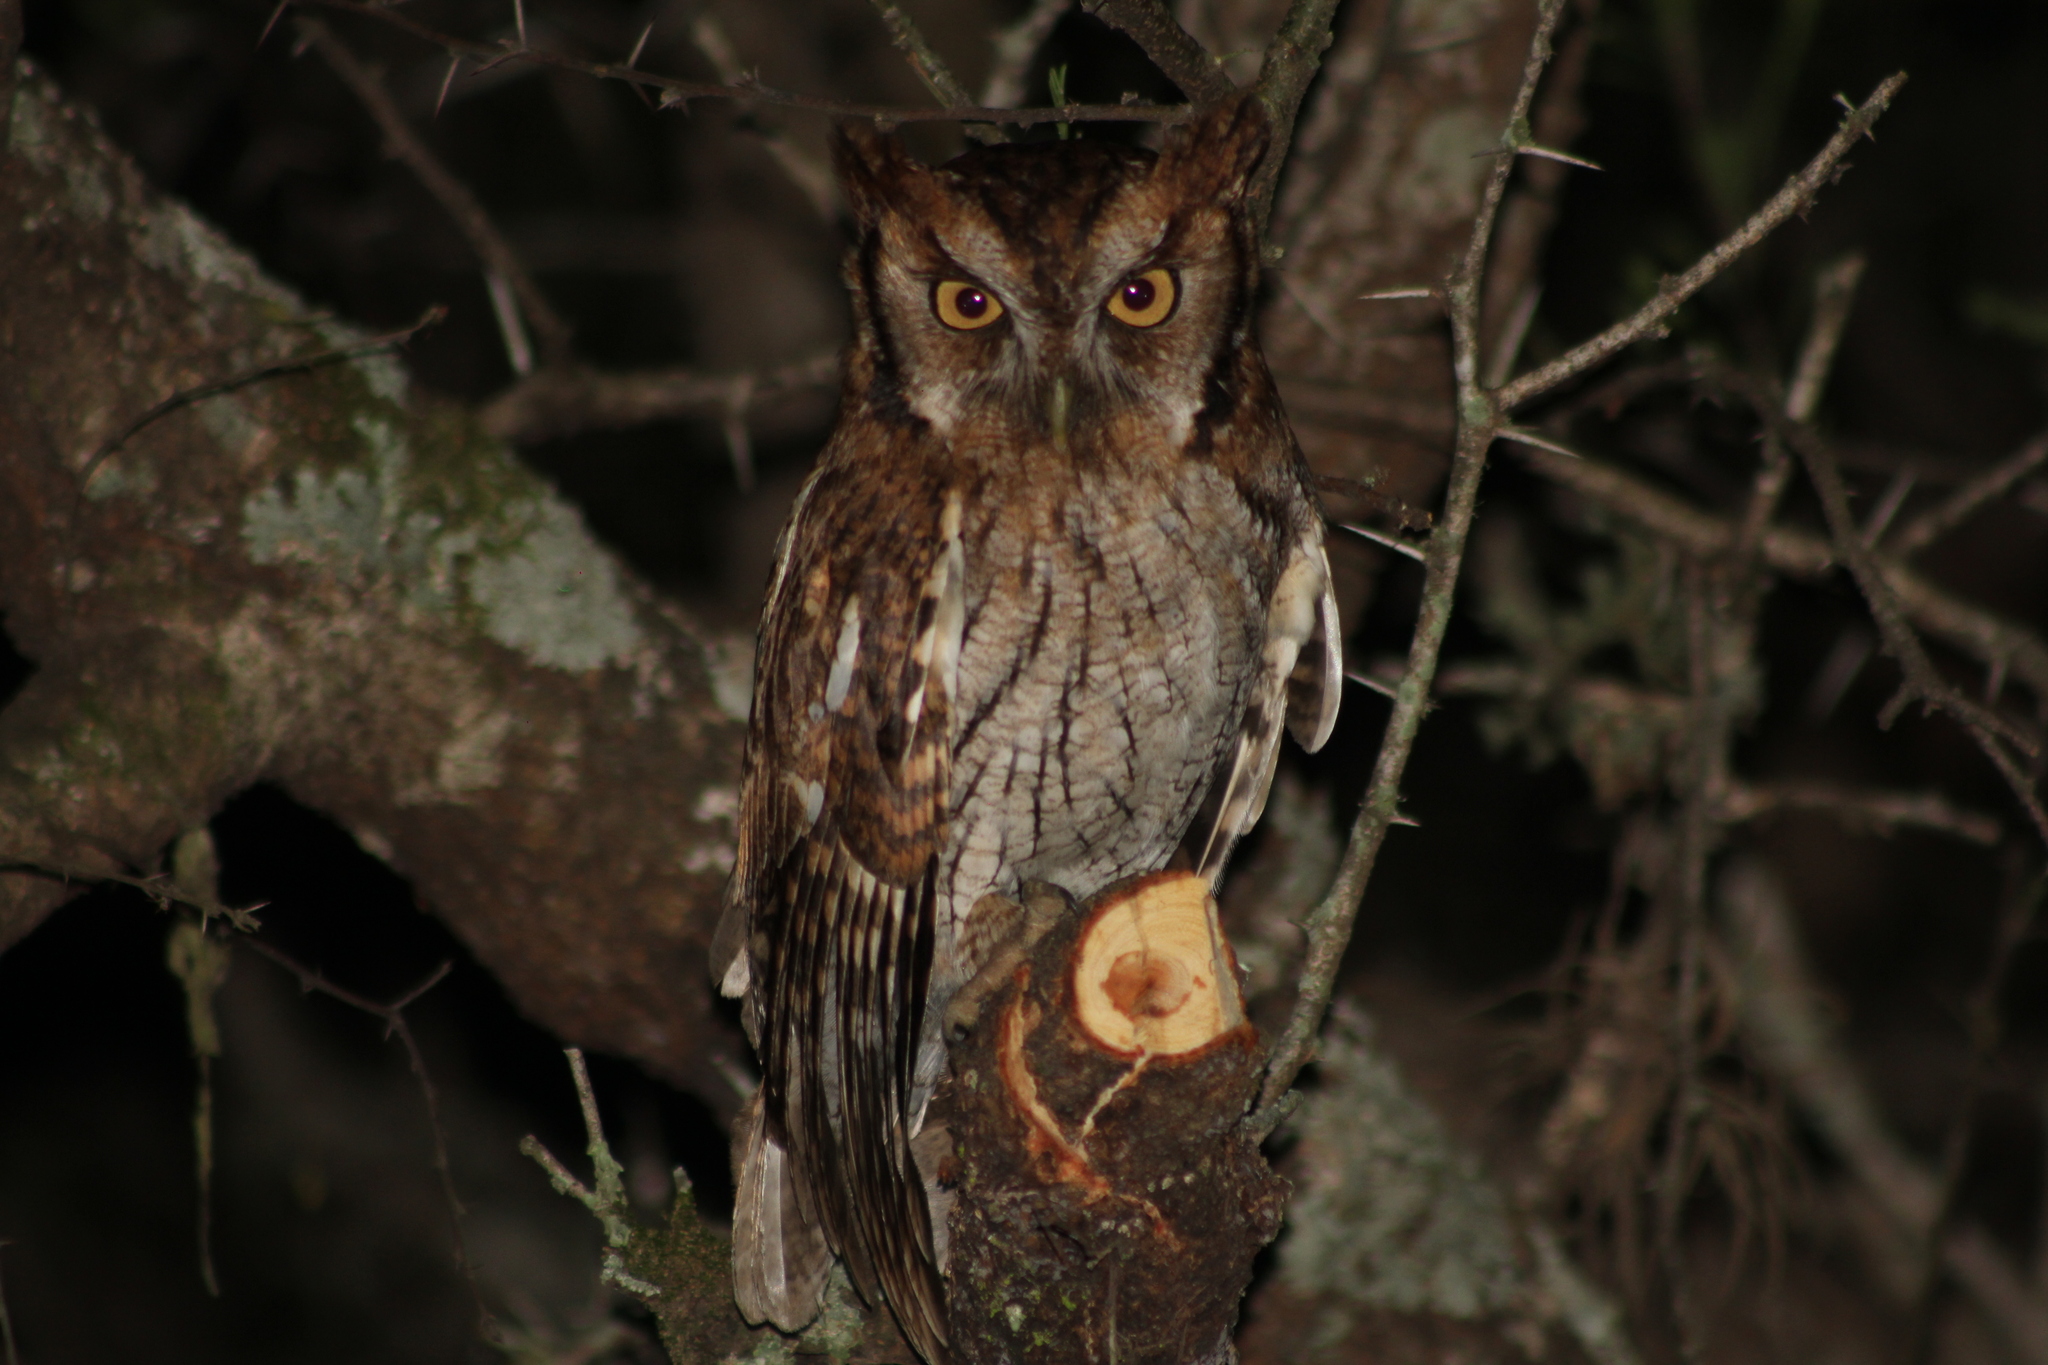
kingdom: Animalia
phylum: Chordata
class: Aves
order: Strigiformes
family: Strigidae
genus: Megascops
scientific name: Megascops choliba
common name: Tropical screech-owl
